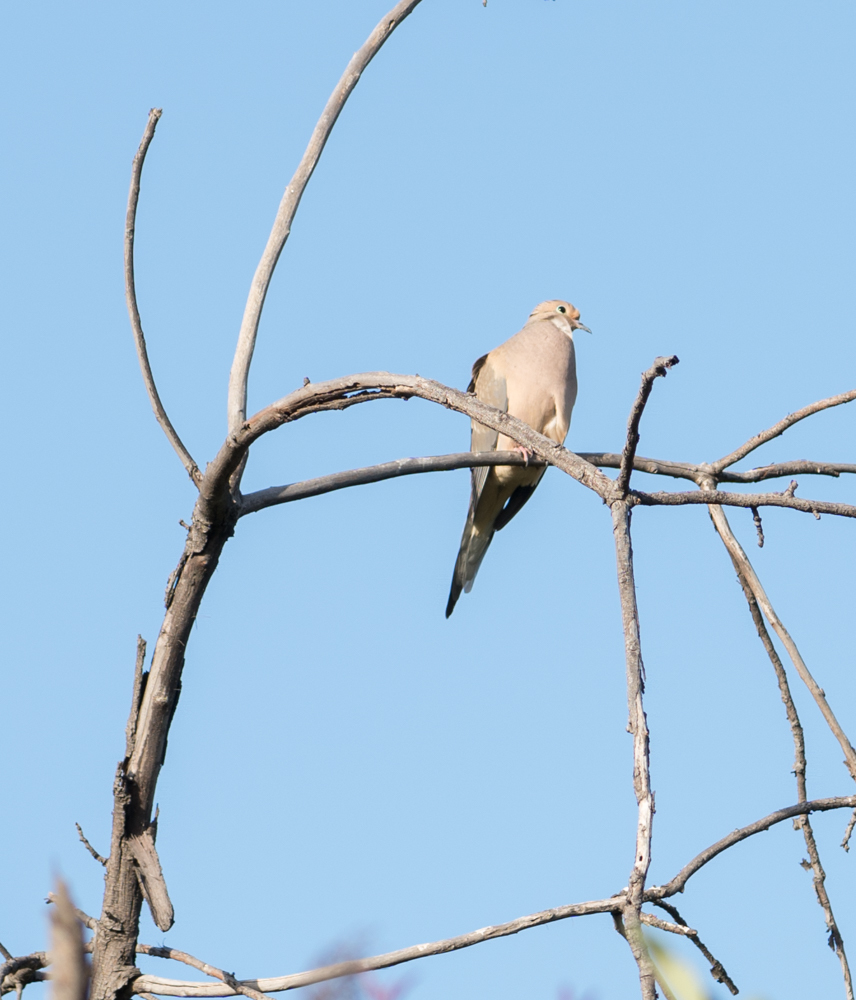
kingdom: Animalia
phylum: Chordata
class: Aves
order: Columbiformes
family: Columbidae
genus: Zenaida
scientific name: Zenaida macroura
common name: Mourning dove
